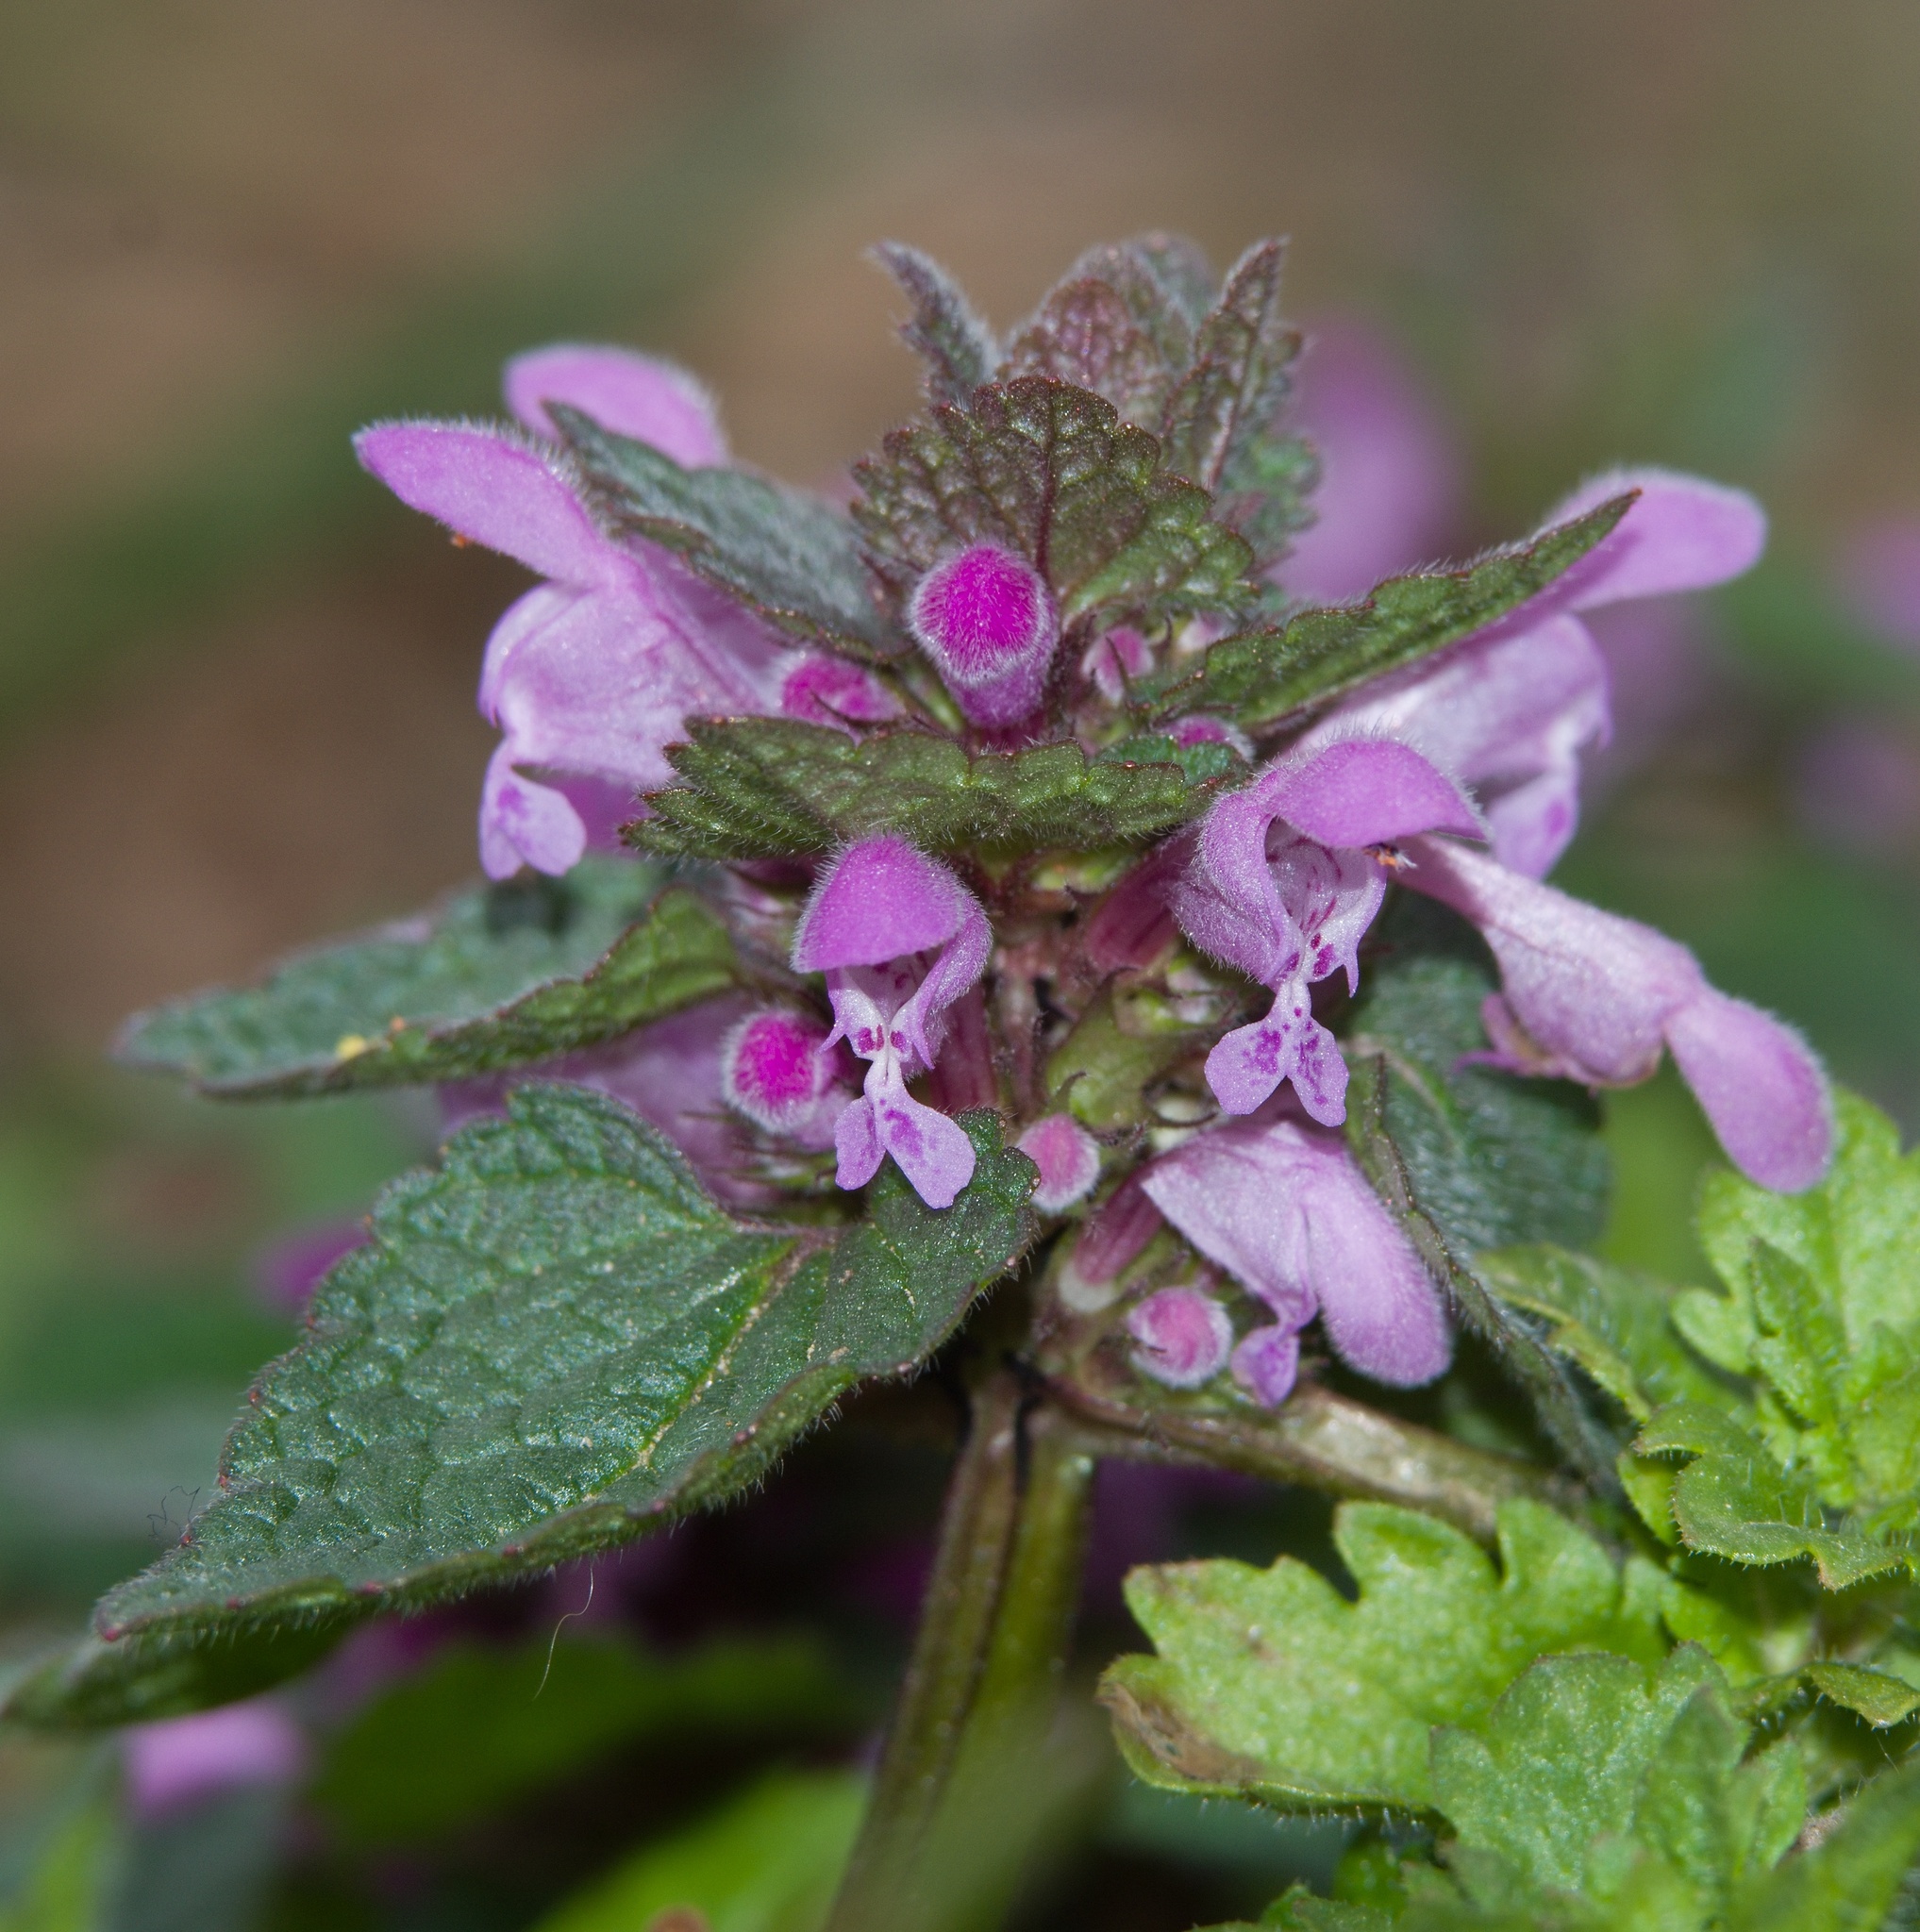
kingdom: Plantae
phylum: Tracheophyta
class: Magnoliopsida
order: Lamiales
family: Lamiaceae
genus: Lamium
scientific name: Lamium purpureum
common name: Red dead-nettle
